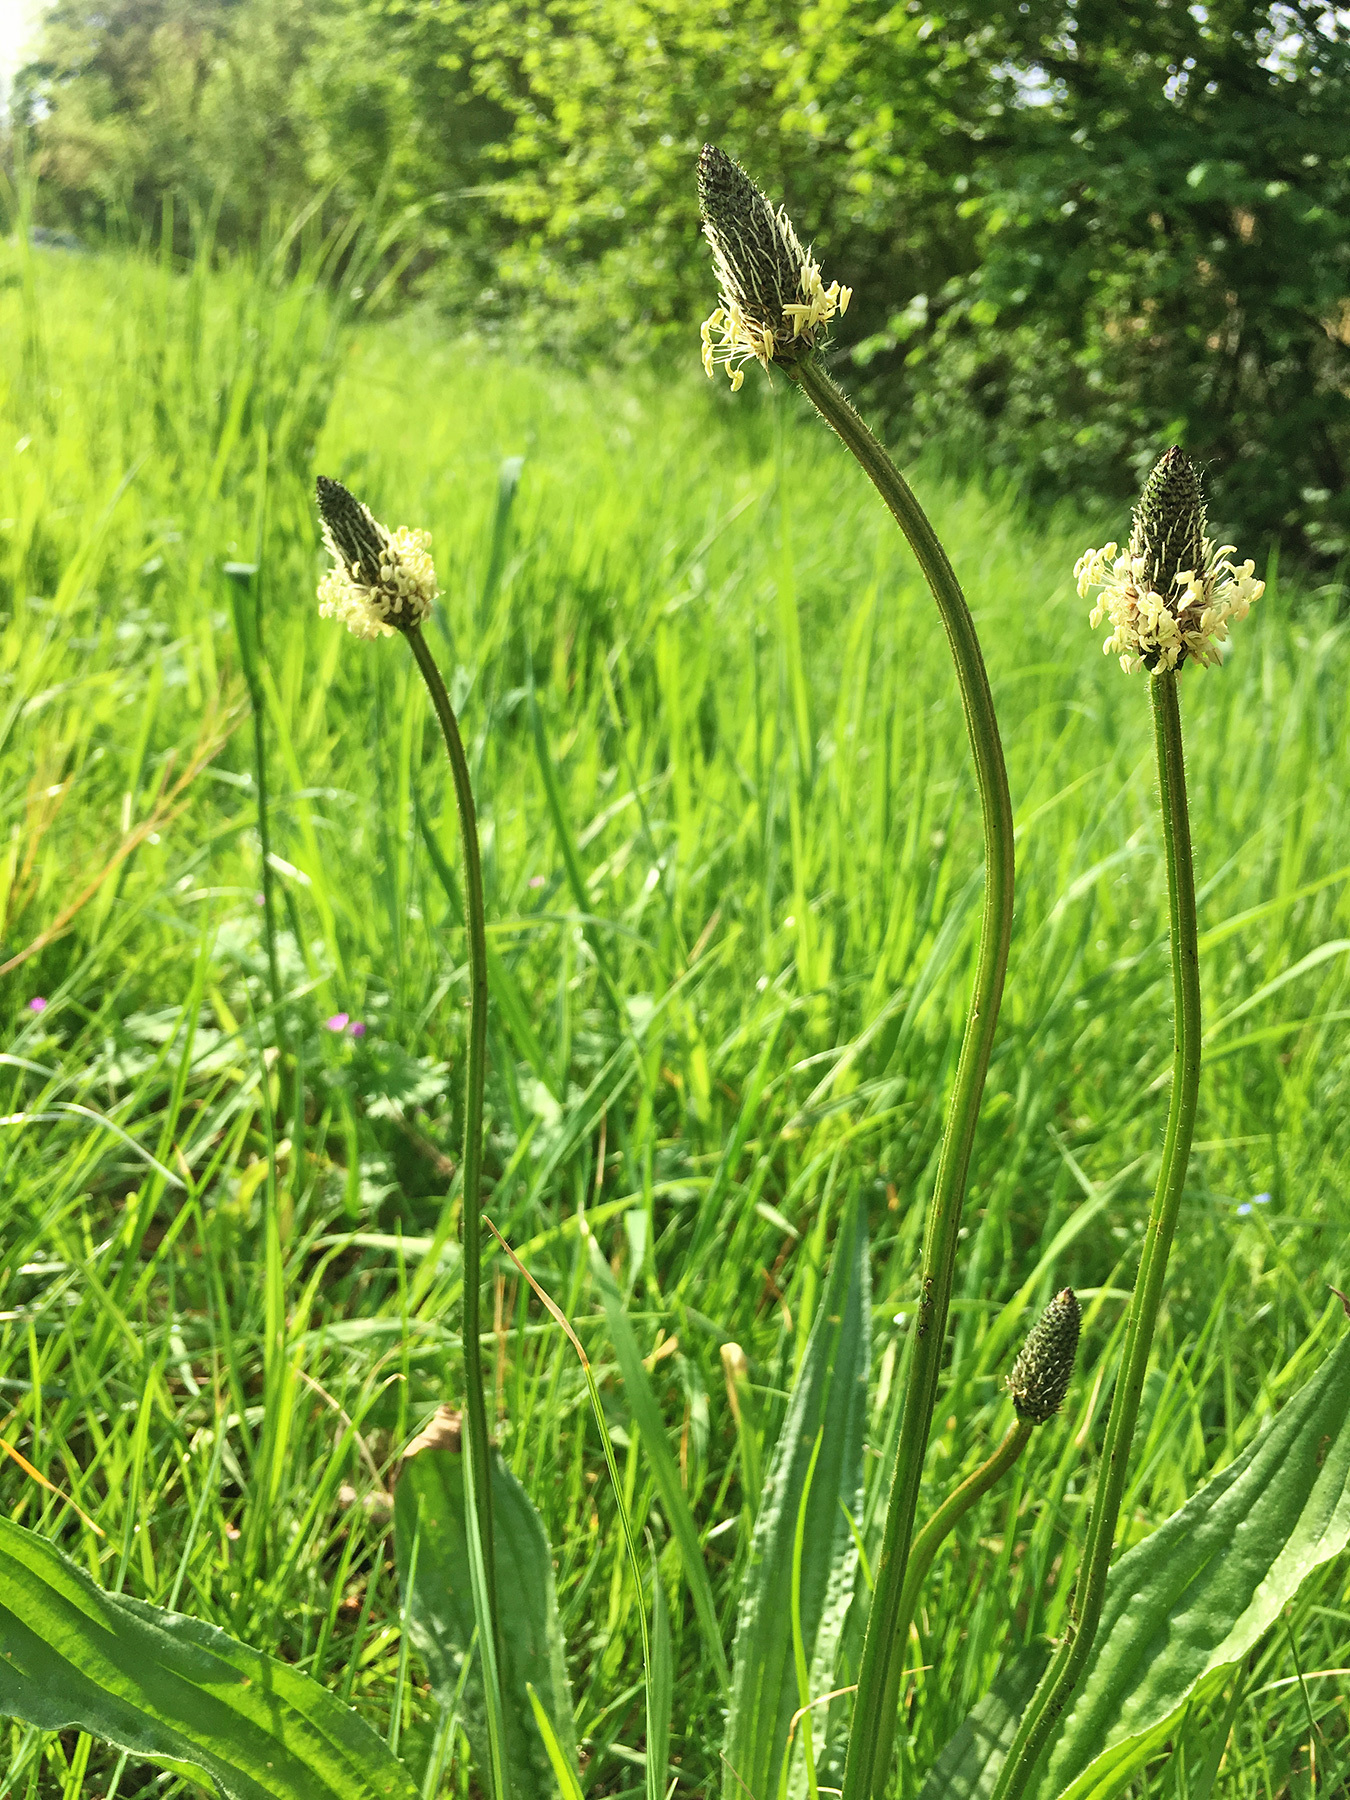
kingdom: Plantae
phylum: Tracheophyta
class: Magnoliopsida
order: Lamiales
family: Plantaginaceae
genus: Plantago
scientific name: Plantago lanceolata
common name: Ribwort plantain
